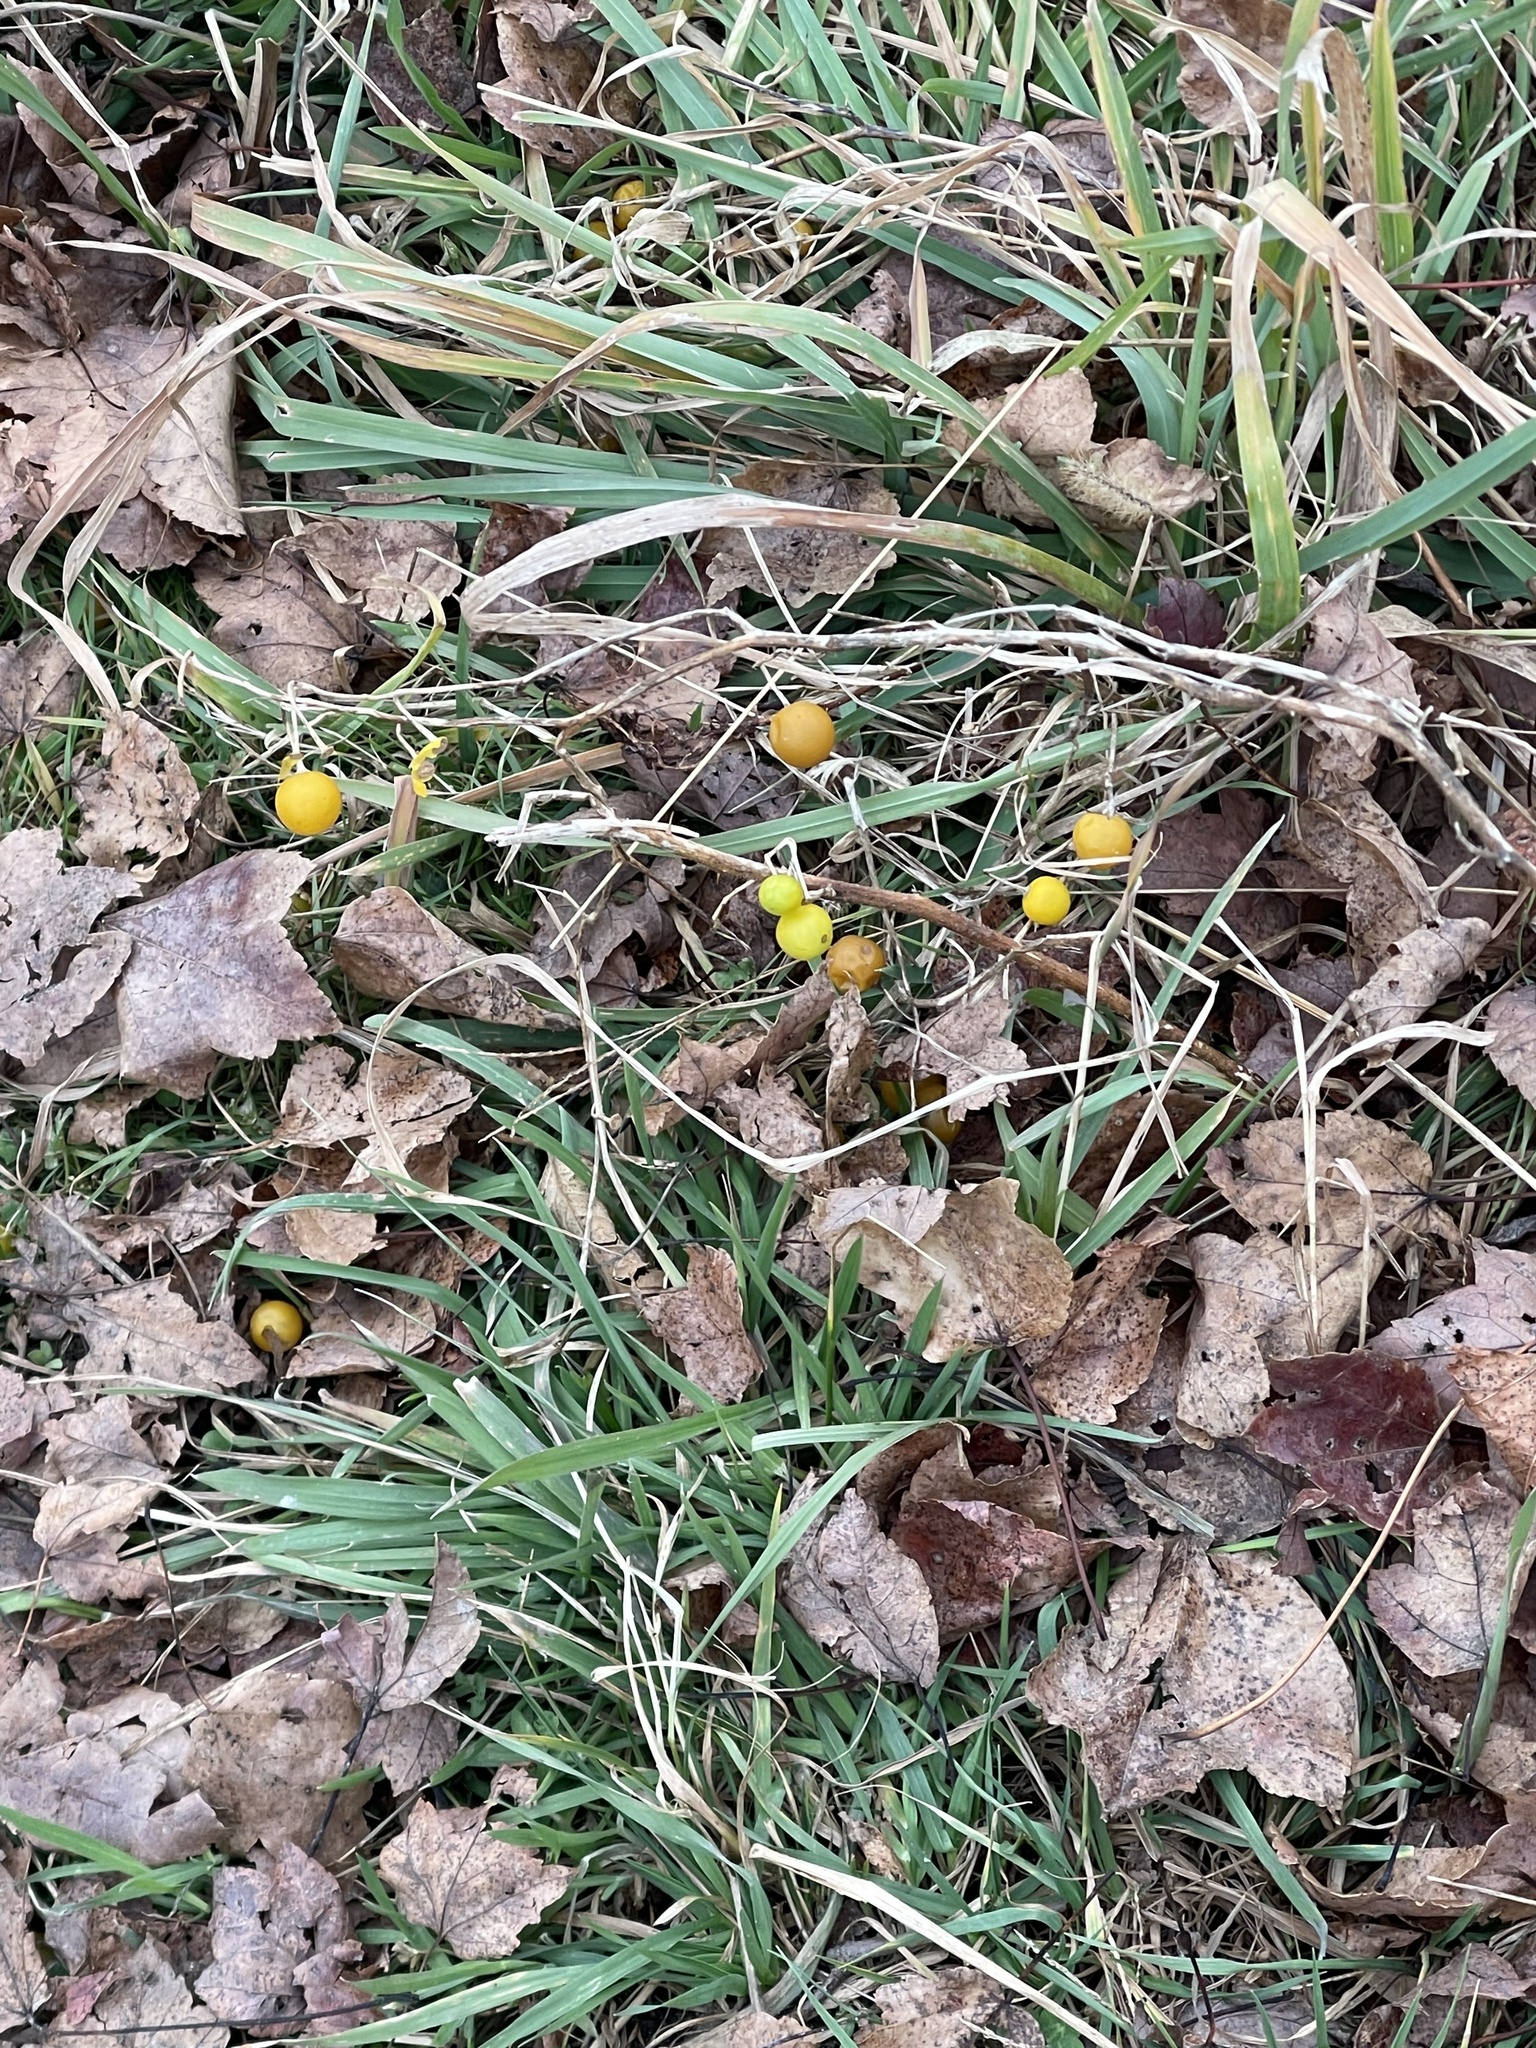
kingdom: Plantae
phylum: Tracheophyta
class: Magnoliopsida
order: Solanales
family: Solanaceae
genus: Solanum
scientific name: Solanum carolinense
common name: Horse-nettle
